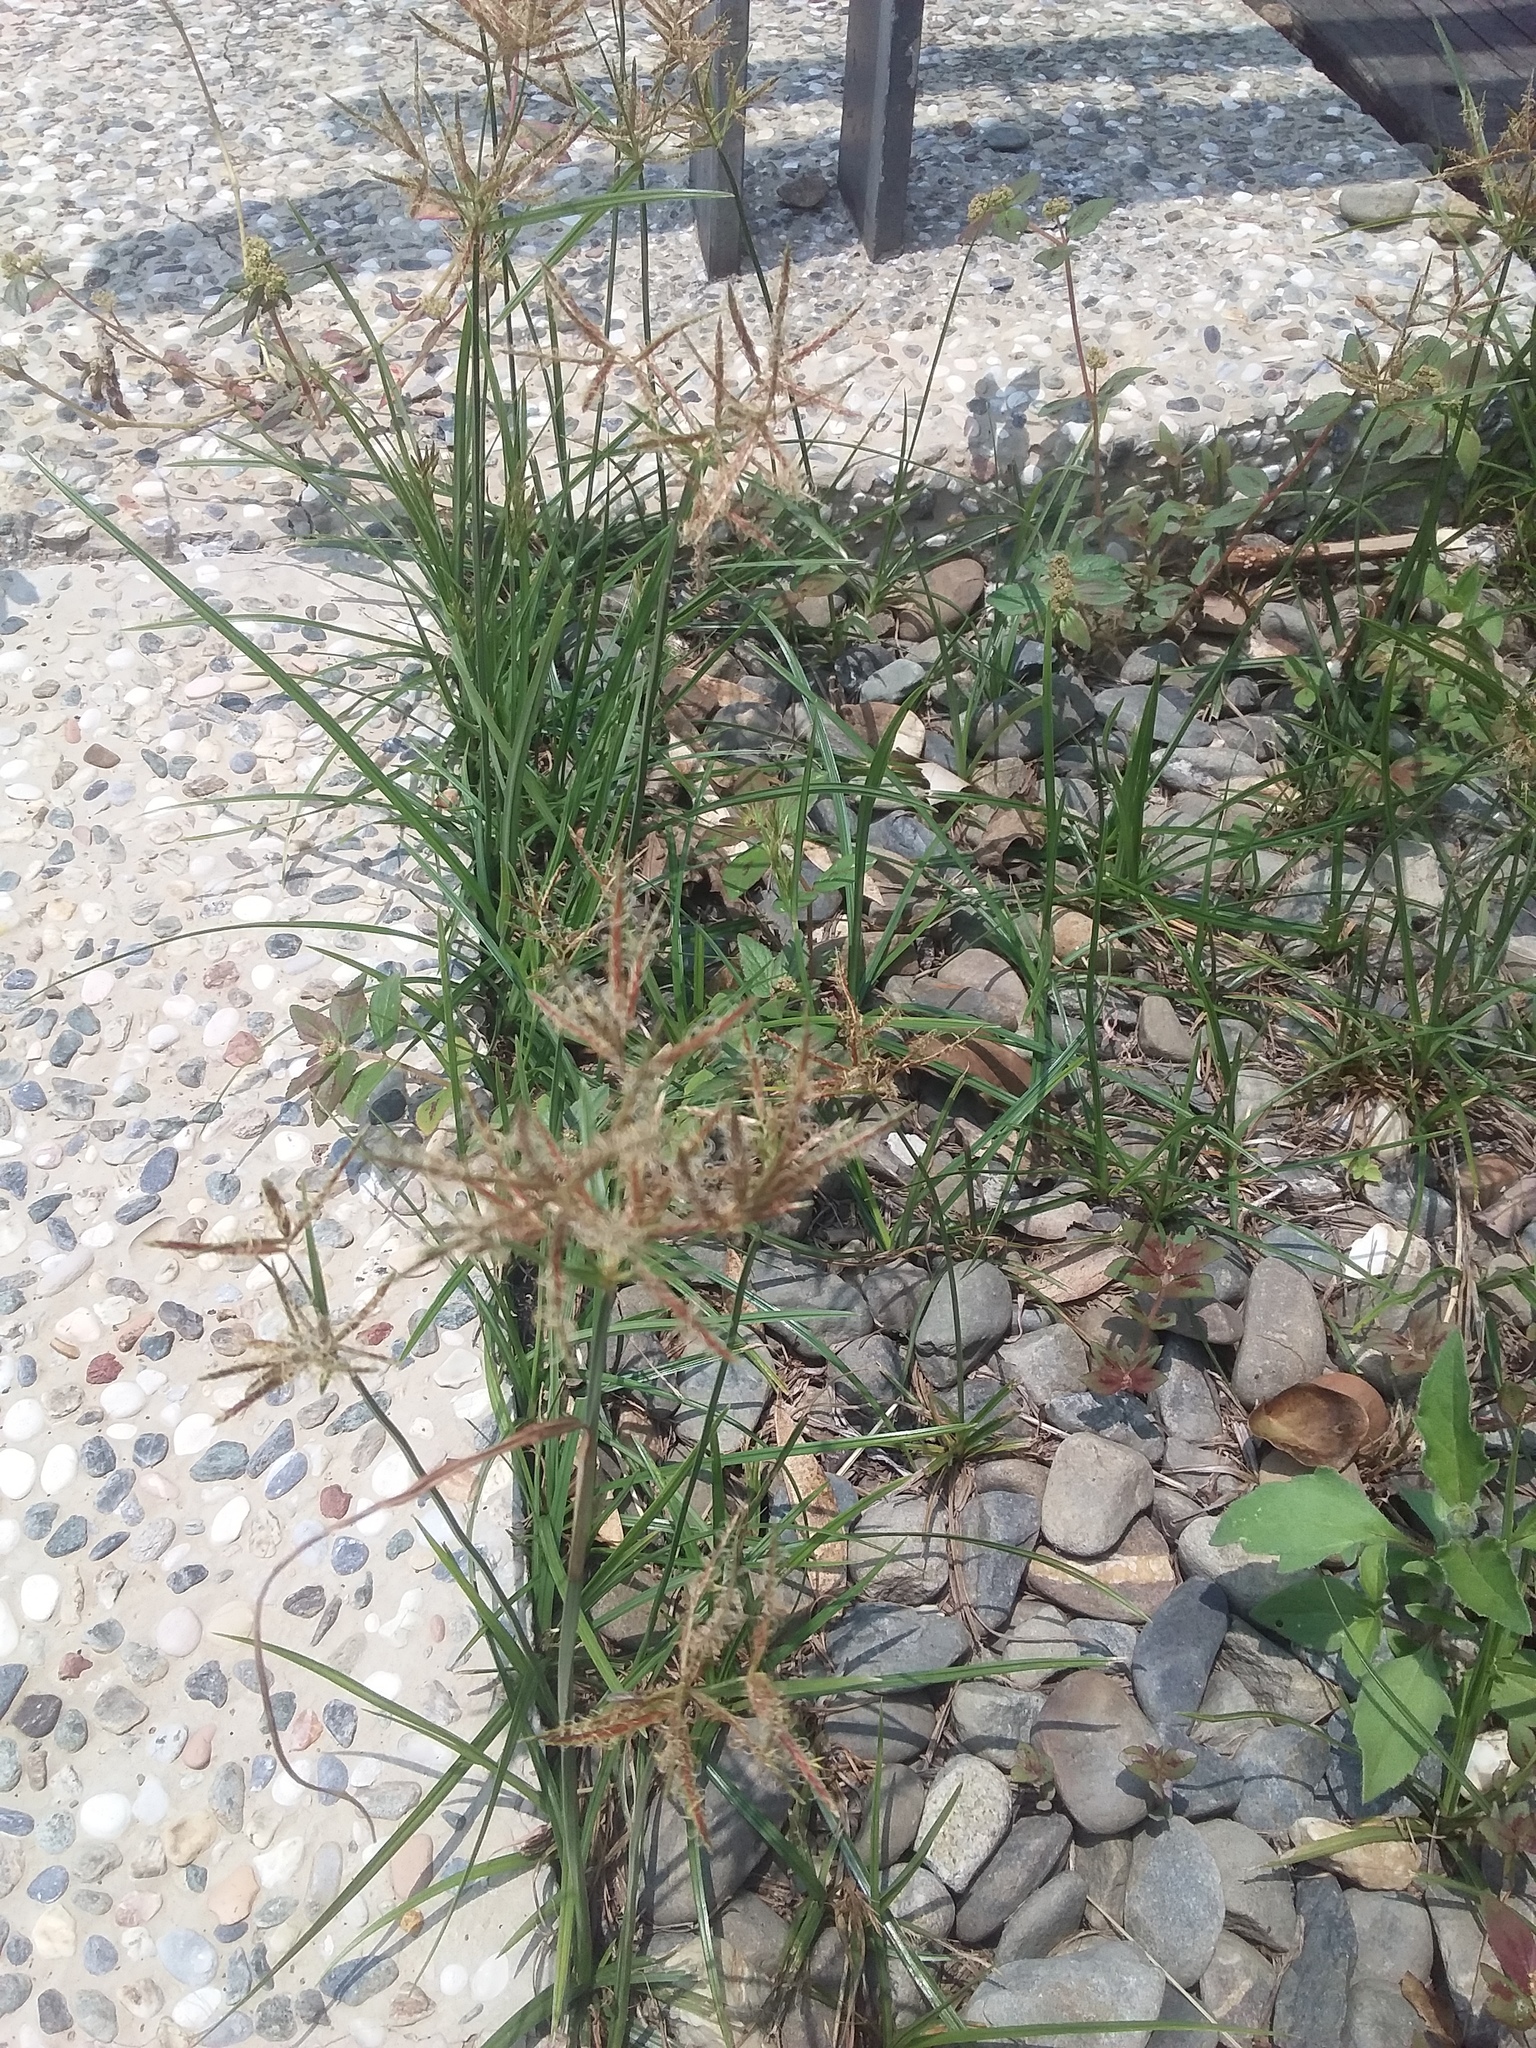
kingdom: Plantae
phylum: Tracheophyta
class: Liliopsida
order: Poales
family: Cyperaceae
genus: Cyperus
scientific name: Cyperus rotundus
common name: Nutgrass
